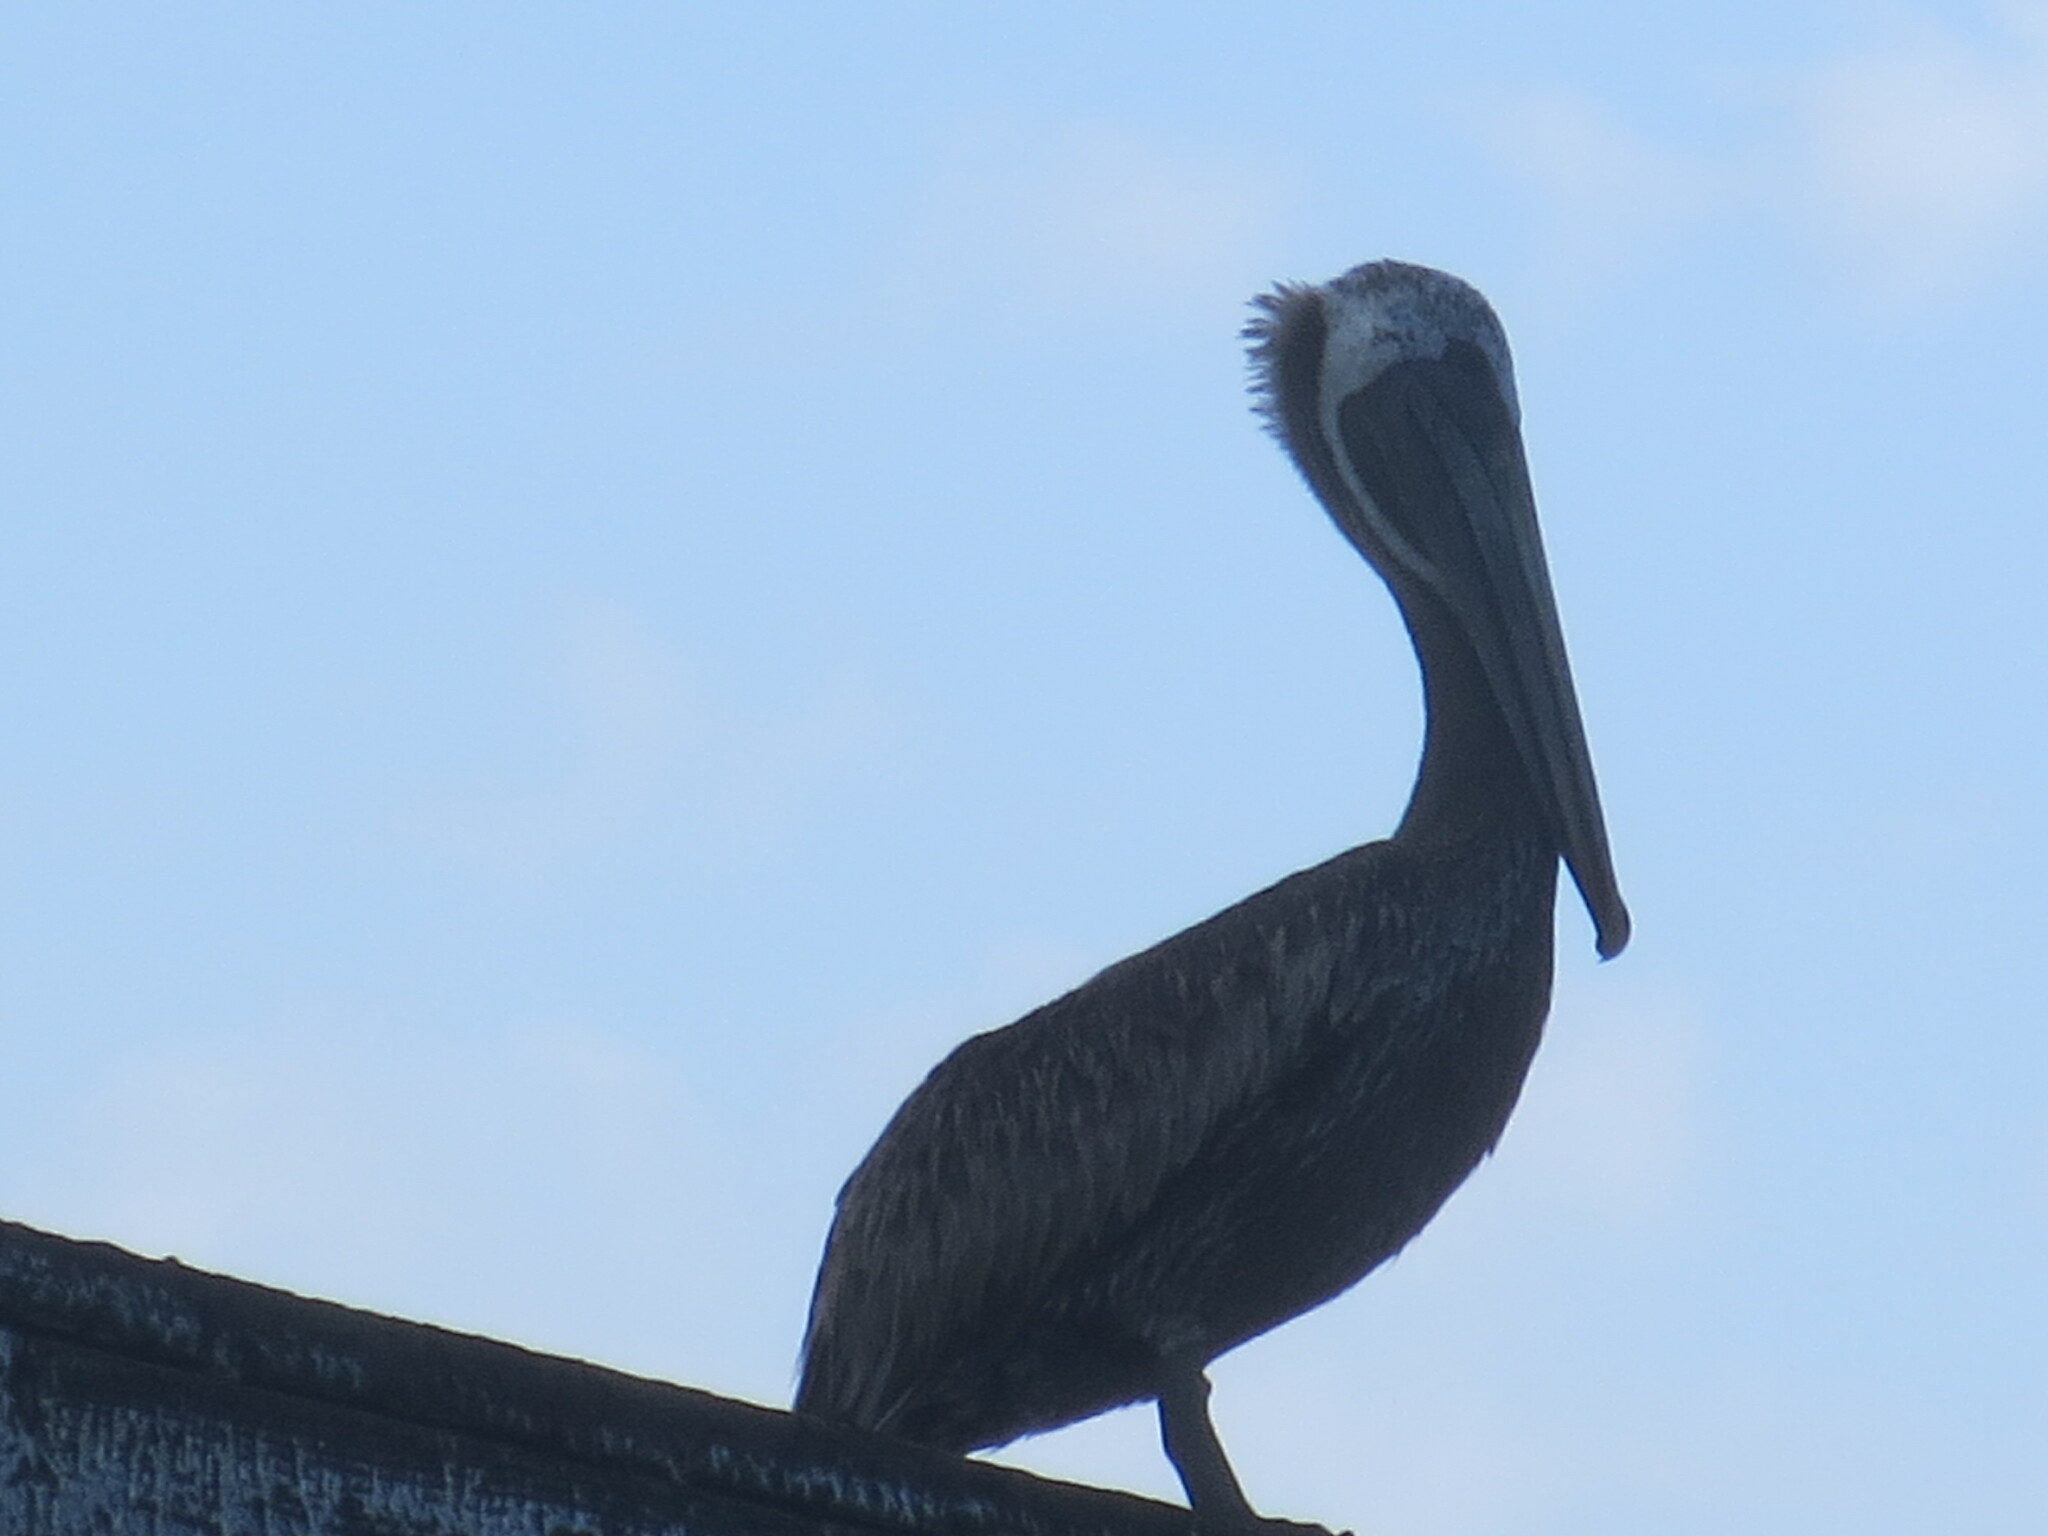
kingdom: Animalia
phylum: Chordata
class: Aves
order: Pelecaniformes
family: Pelecanidae
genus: Pelecanus
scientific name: Pelecanus occidentalis
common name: Brown pelican
